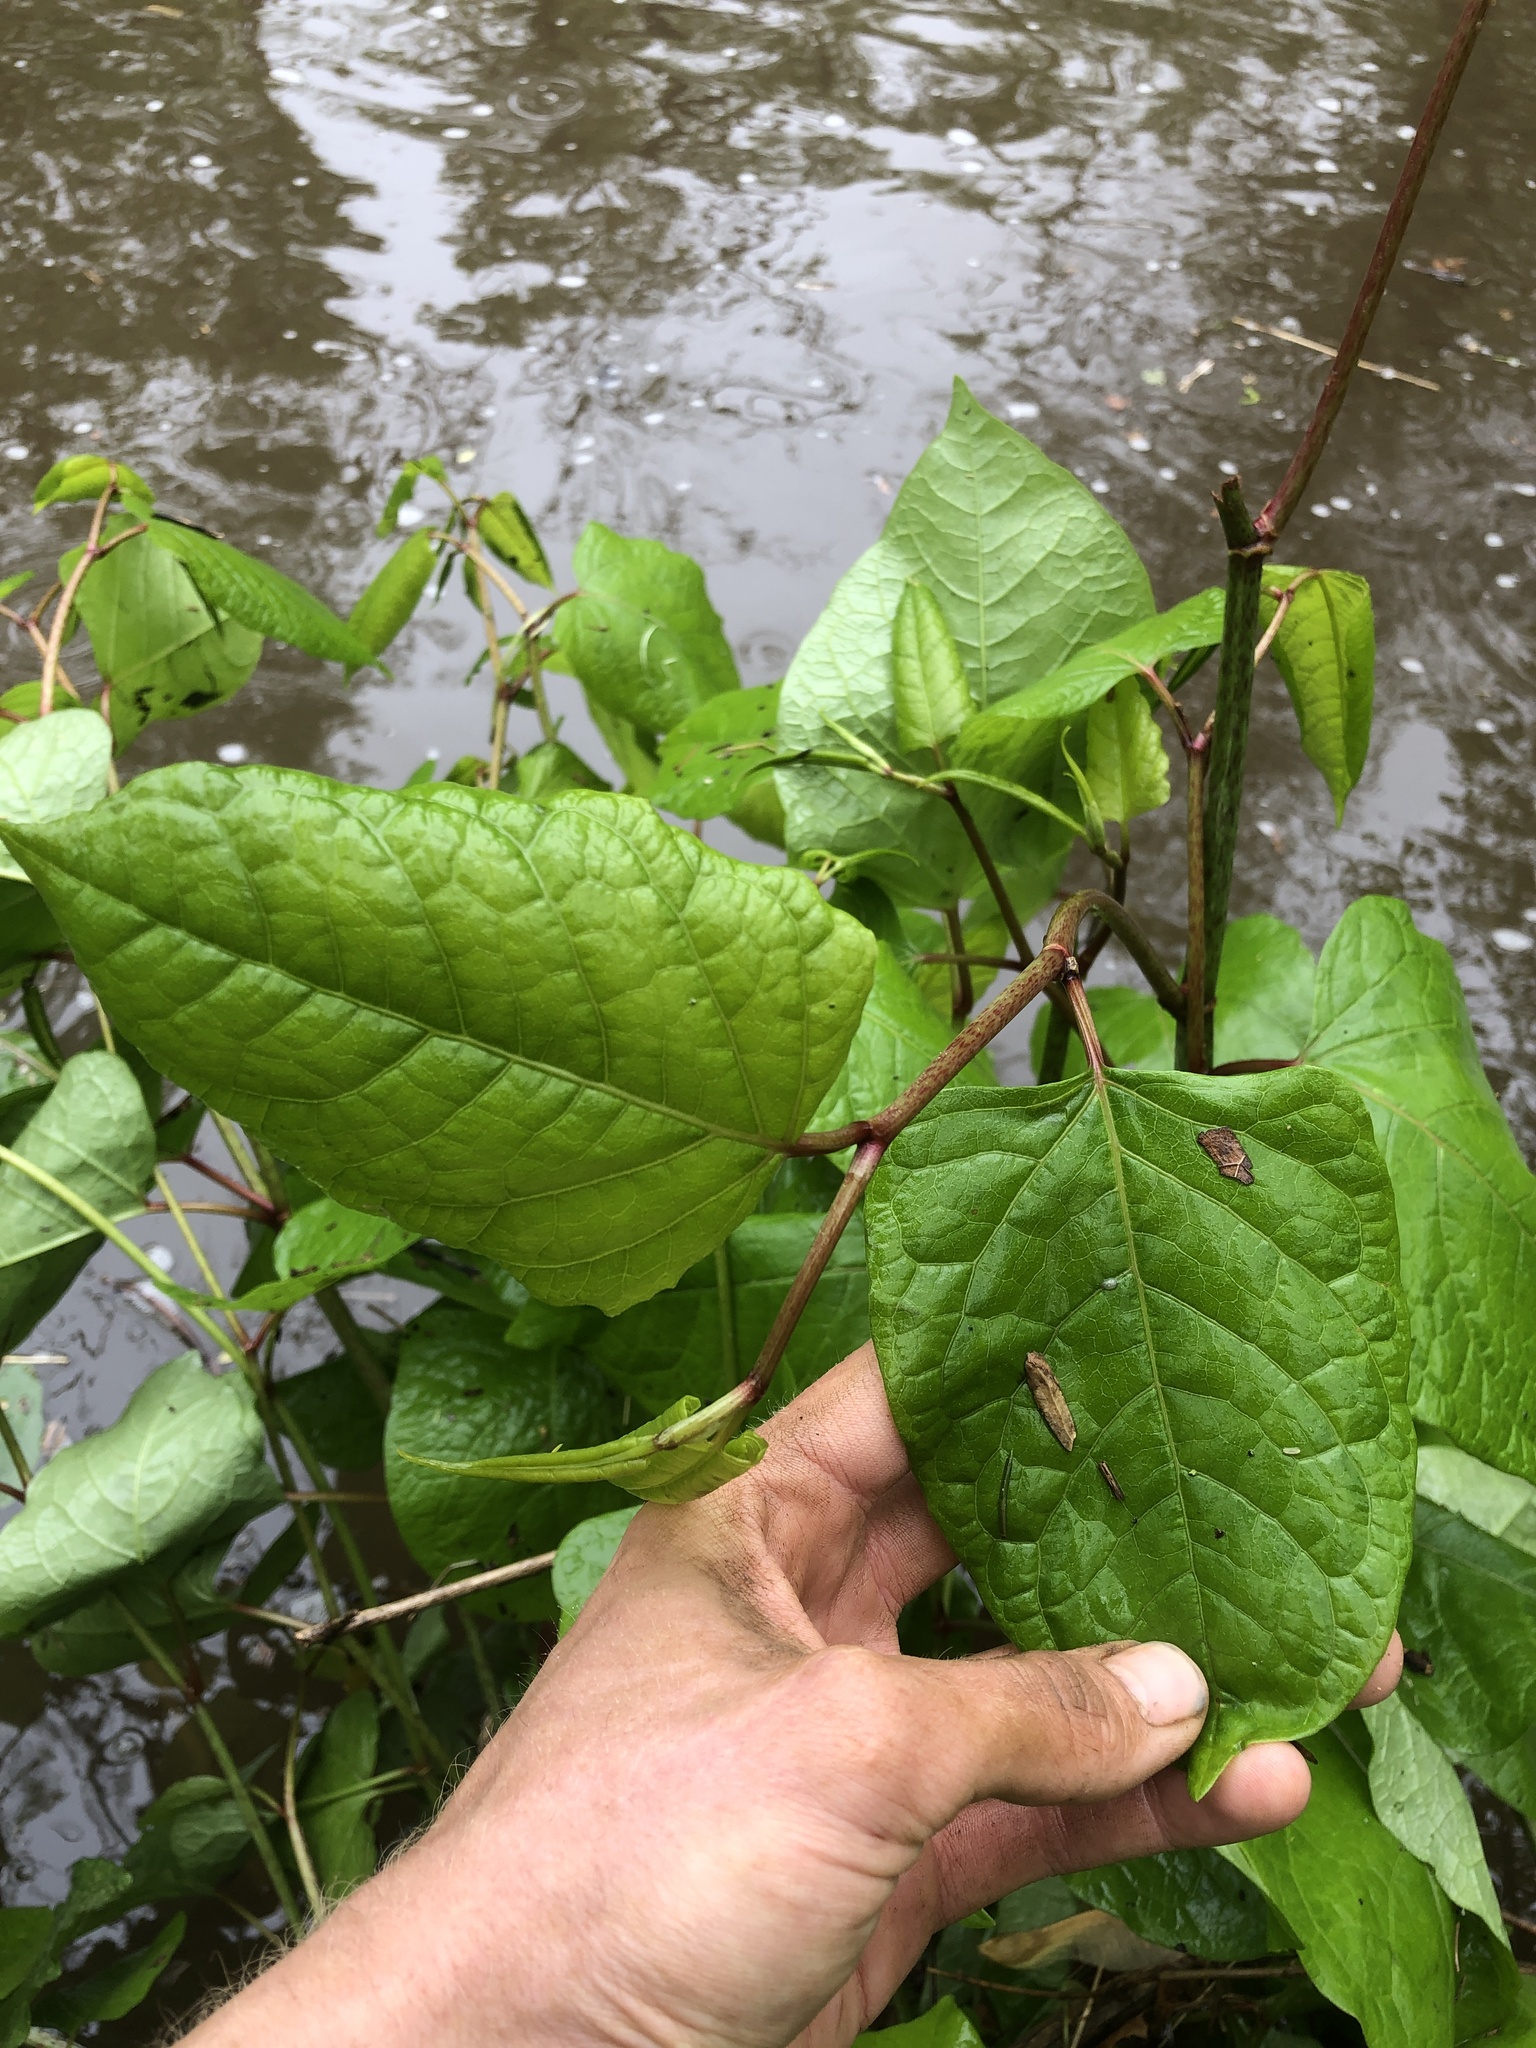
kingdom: Plantae
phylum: Tracheophyta
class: Magnoliopsida
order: Caryophyllales
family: Polygonaceae
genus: Reynoutria
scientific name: Reynoutria japonica
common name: Japanese knotweed
